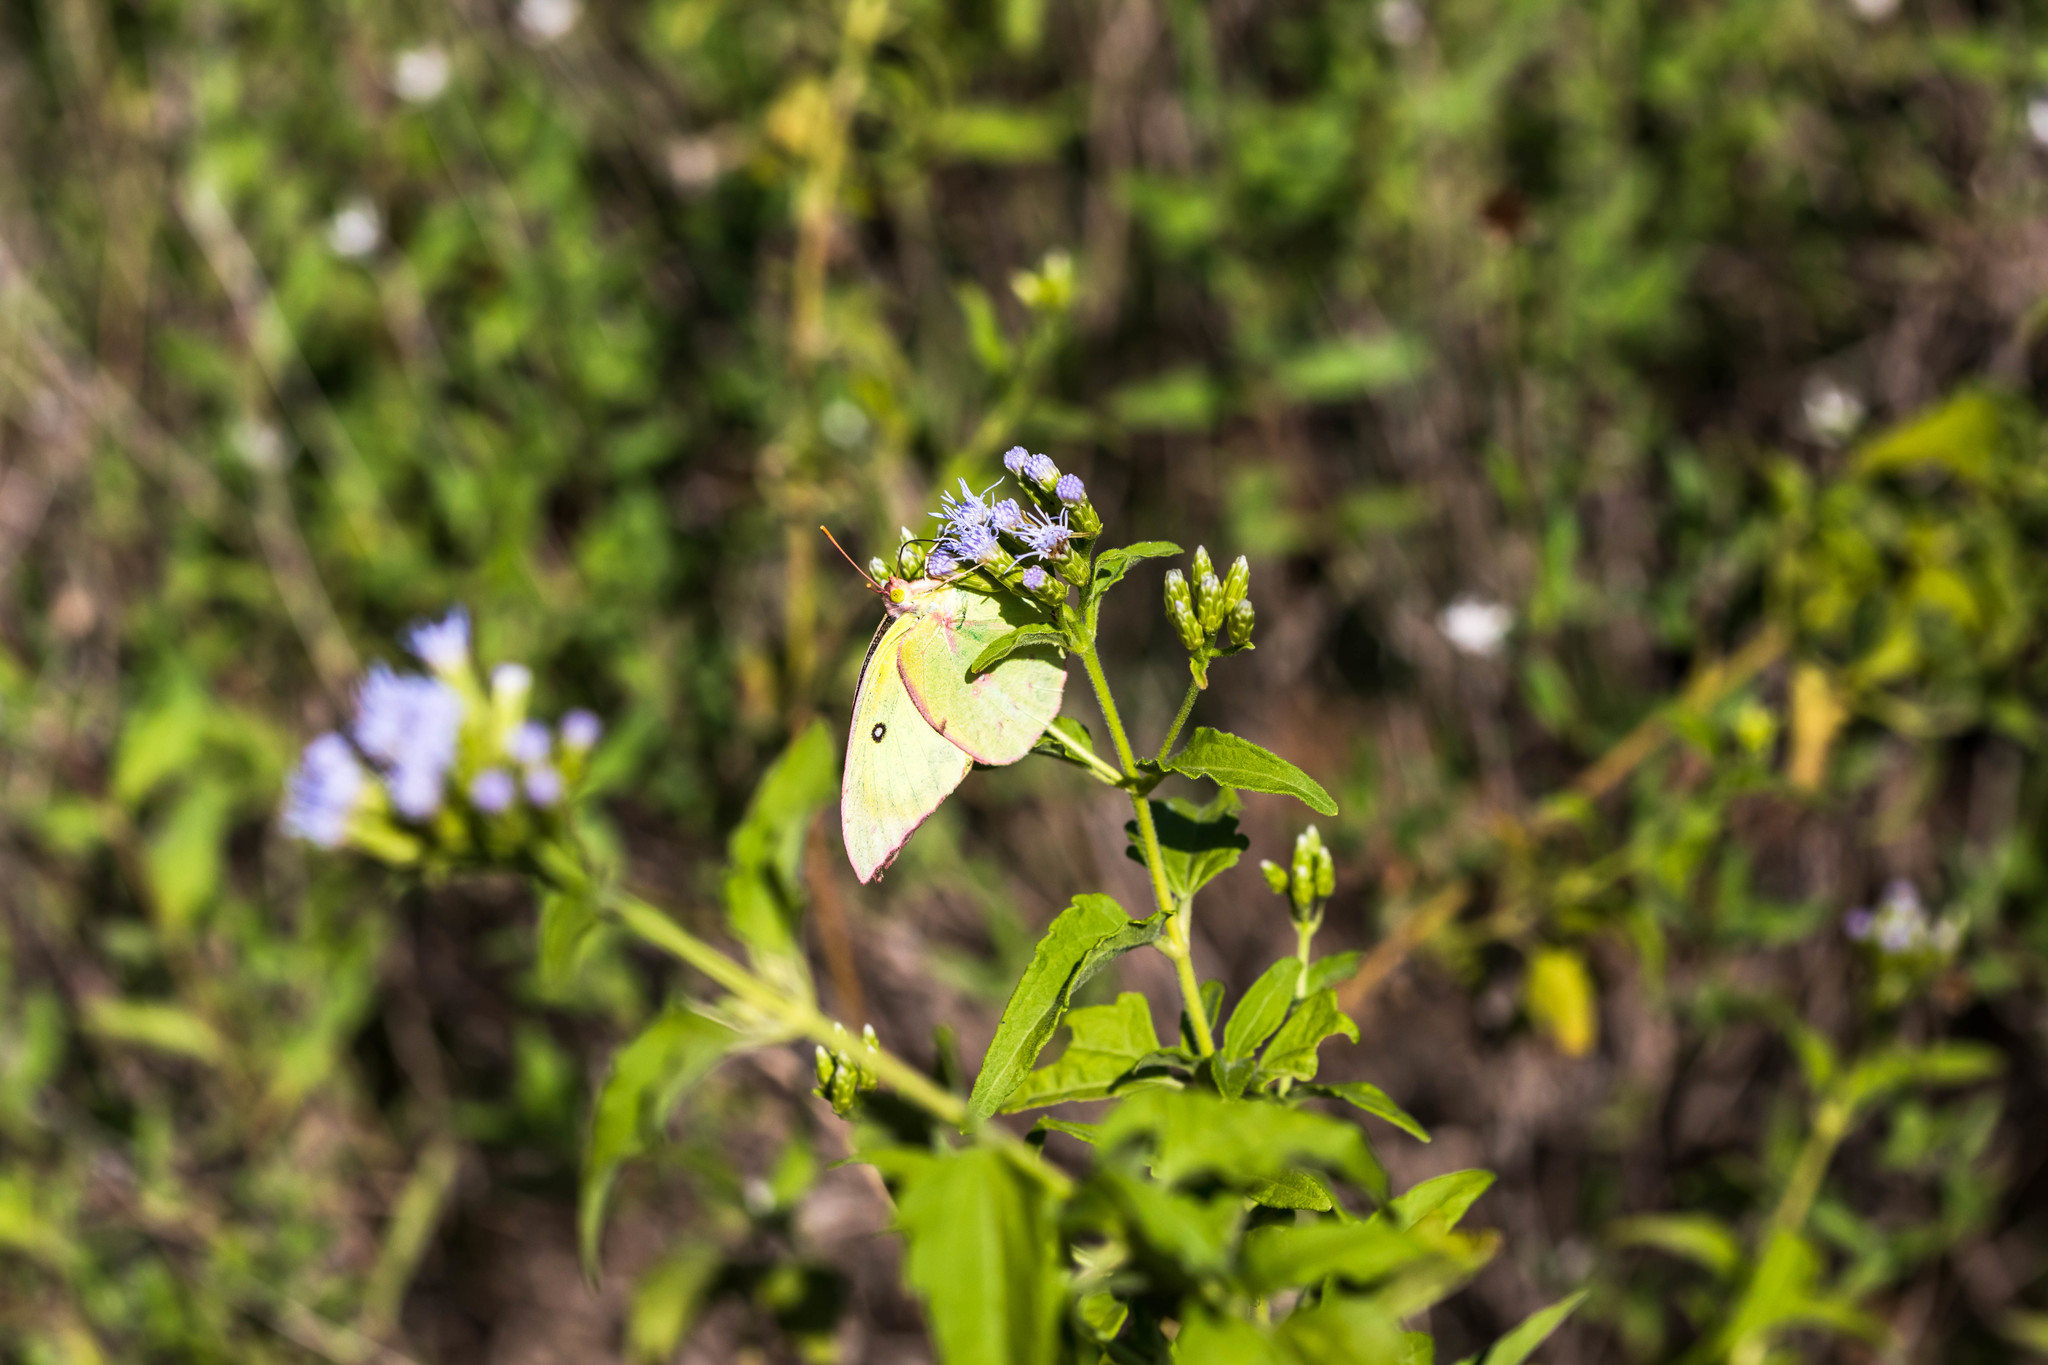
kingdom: Animalia
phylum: Arthropoda
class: Insecta
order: Lepidoptera
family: Pieridae
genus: Zerene
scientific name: Zerene cesonia
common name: Southern dogface
